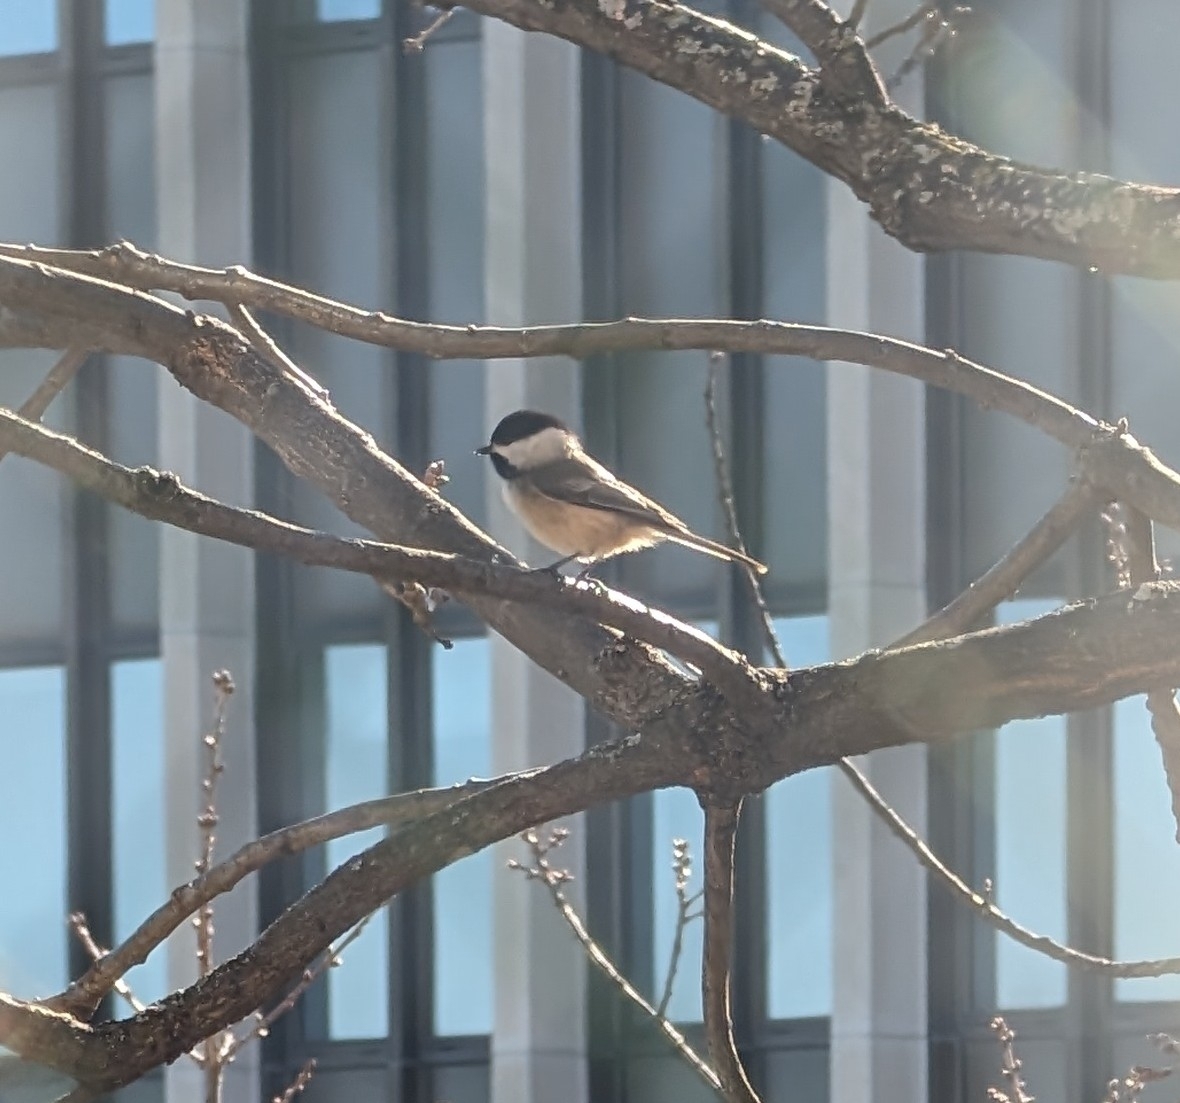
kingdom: Animalia
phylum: Chordata
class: Aves
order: Passeriformes
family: Paridae
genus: Poecile
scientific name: Poecile atricapillus
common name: Black-capped chickadee
